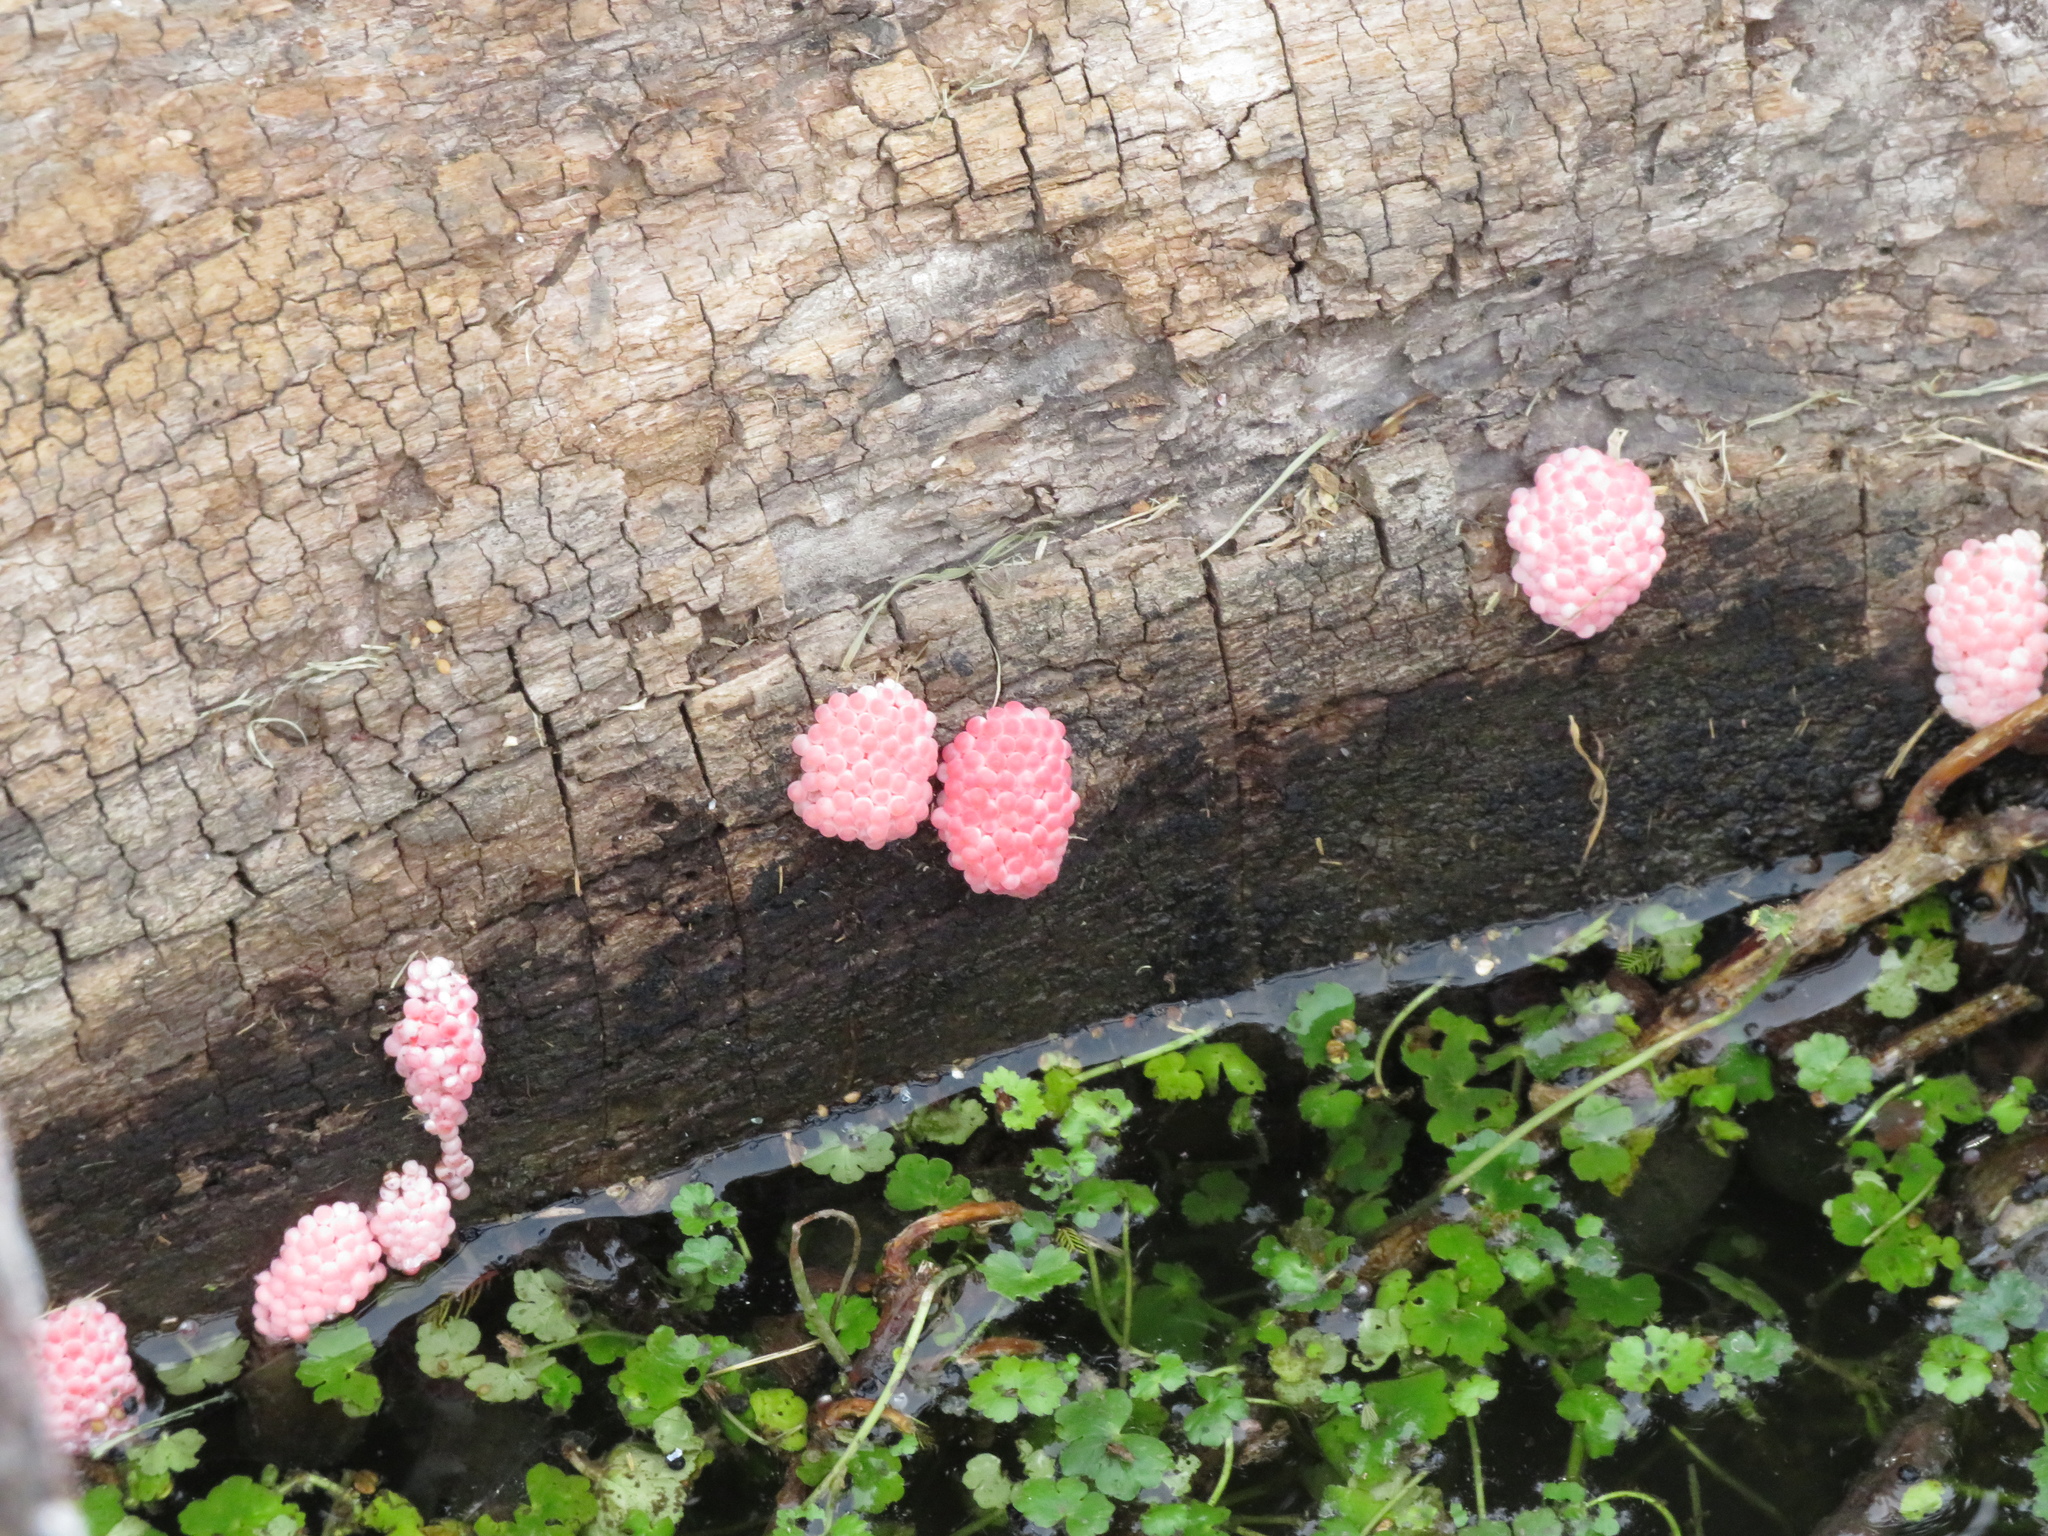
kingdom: Animalia
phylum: Mollusca
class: Gastropoda
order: Architaenioglossa
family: Ampullariidae
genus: Pomacea
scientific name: Pomacea canaliculata
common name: Channeled applesnail
